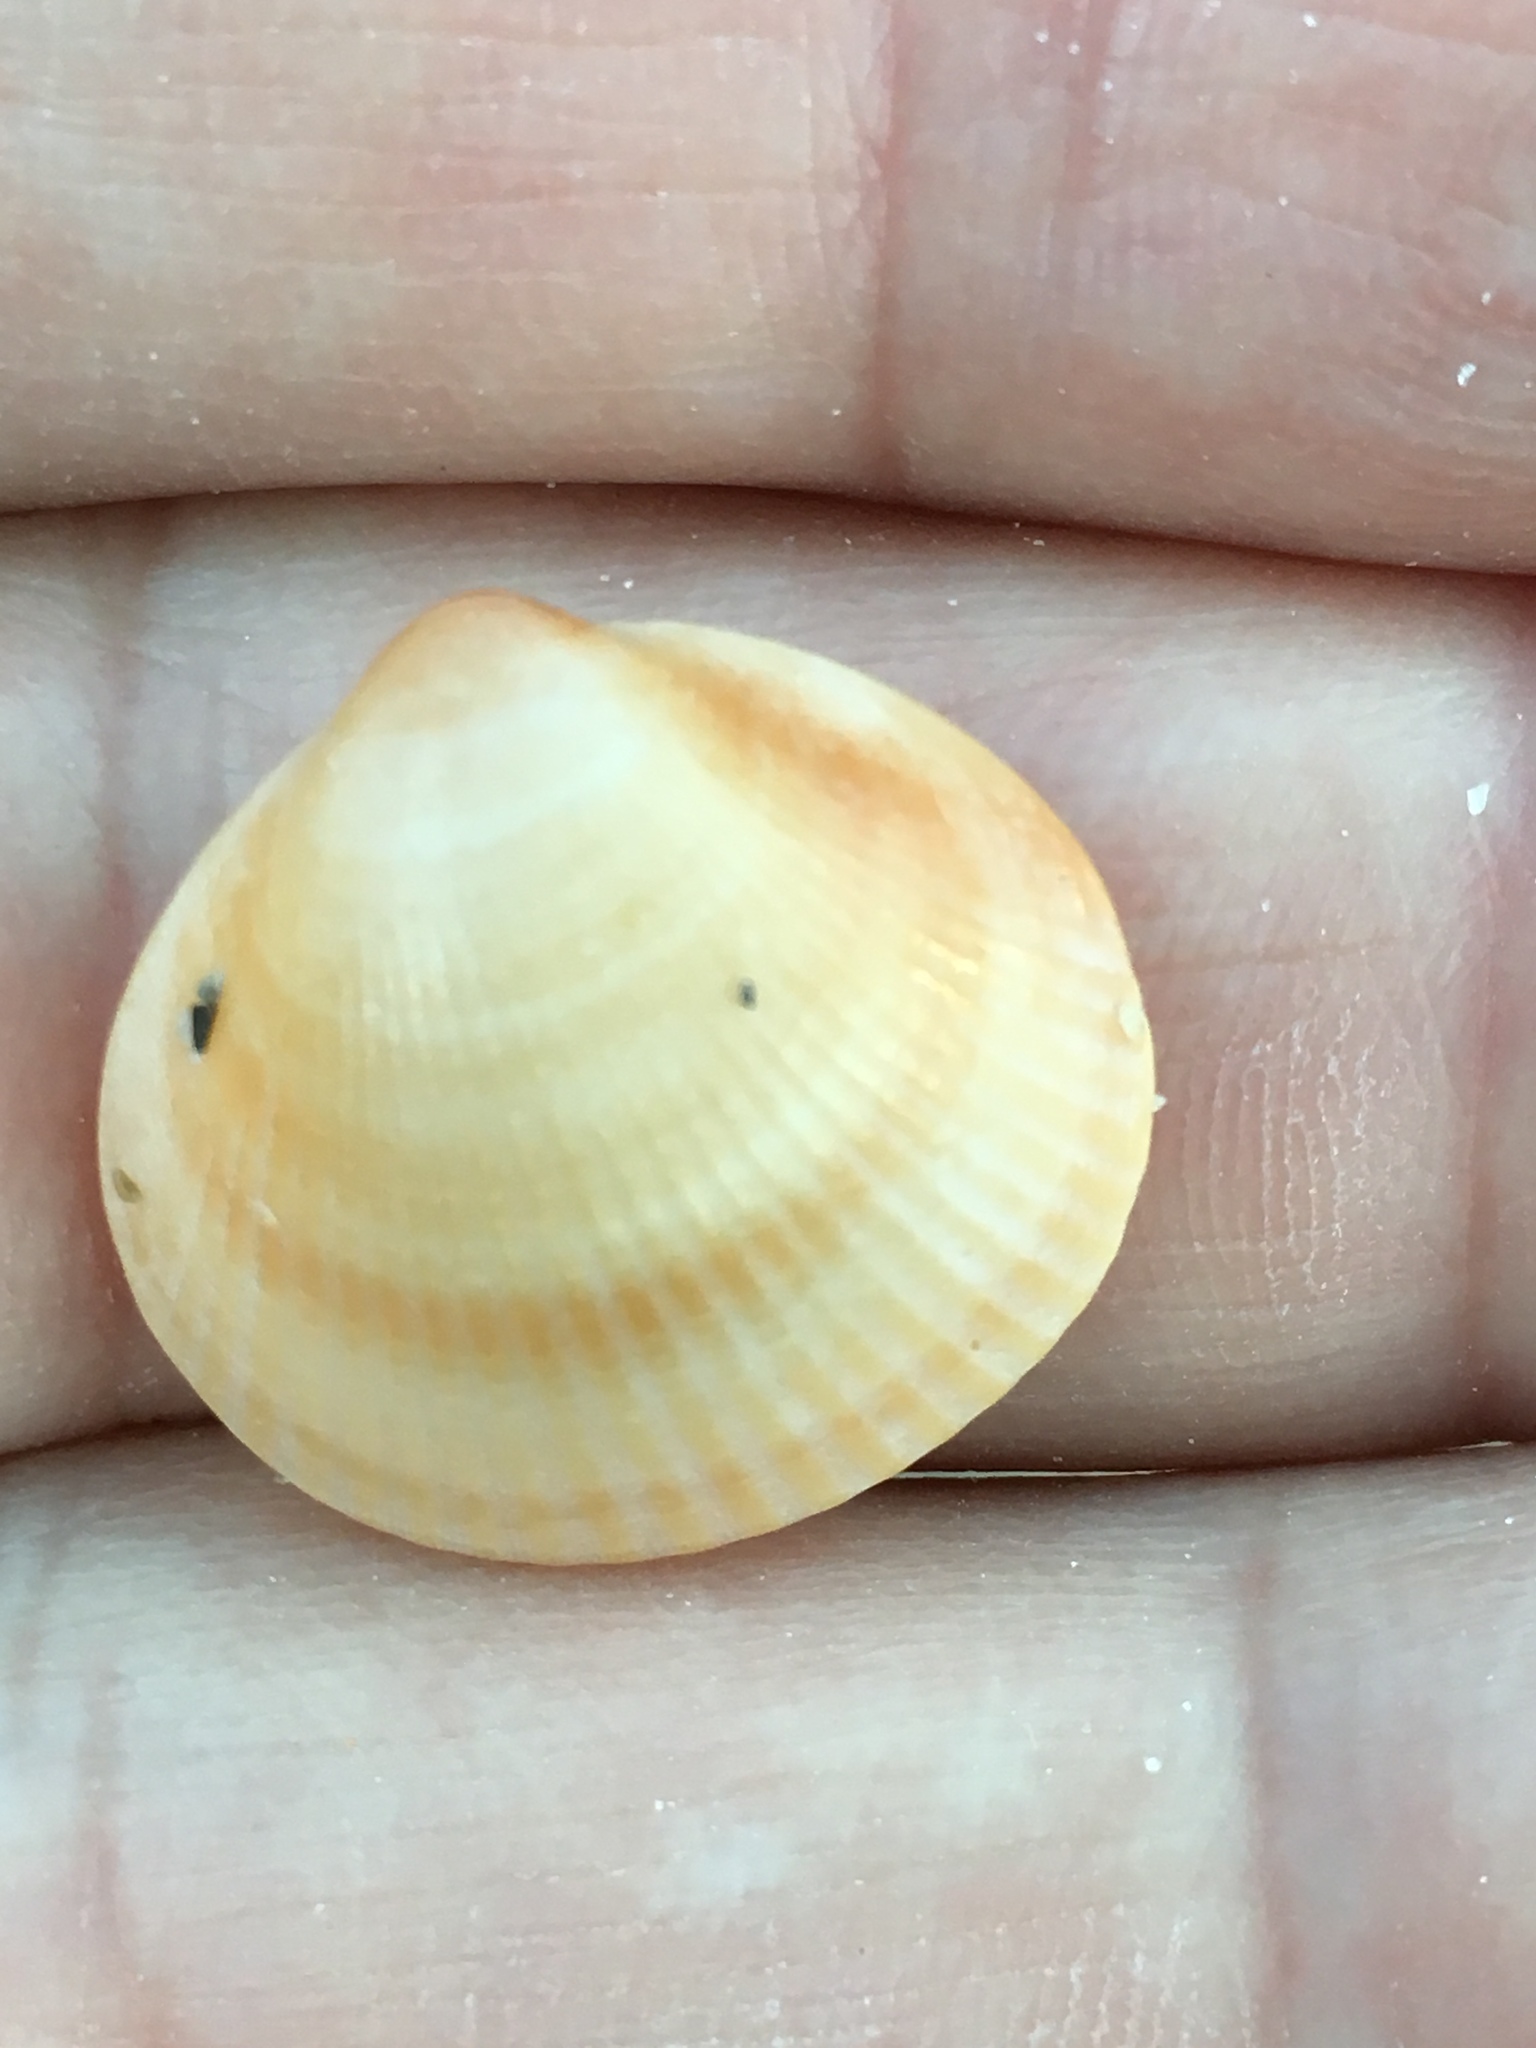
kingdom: Animalia
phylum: Mollusca
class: Bivalvia
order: Arcida
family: Glycymerididae
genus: Glycymeris
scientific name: Glycymeris spectralis
